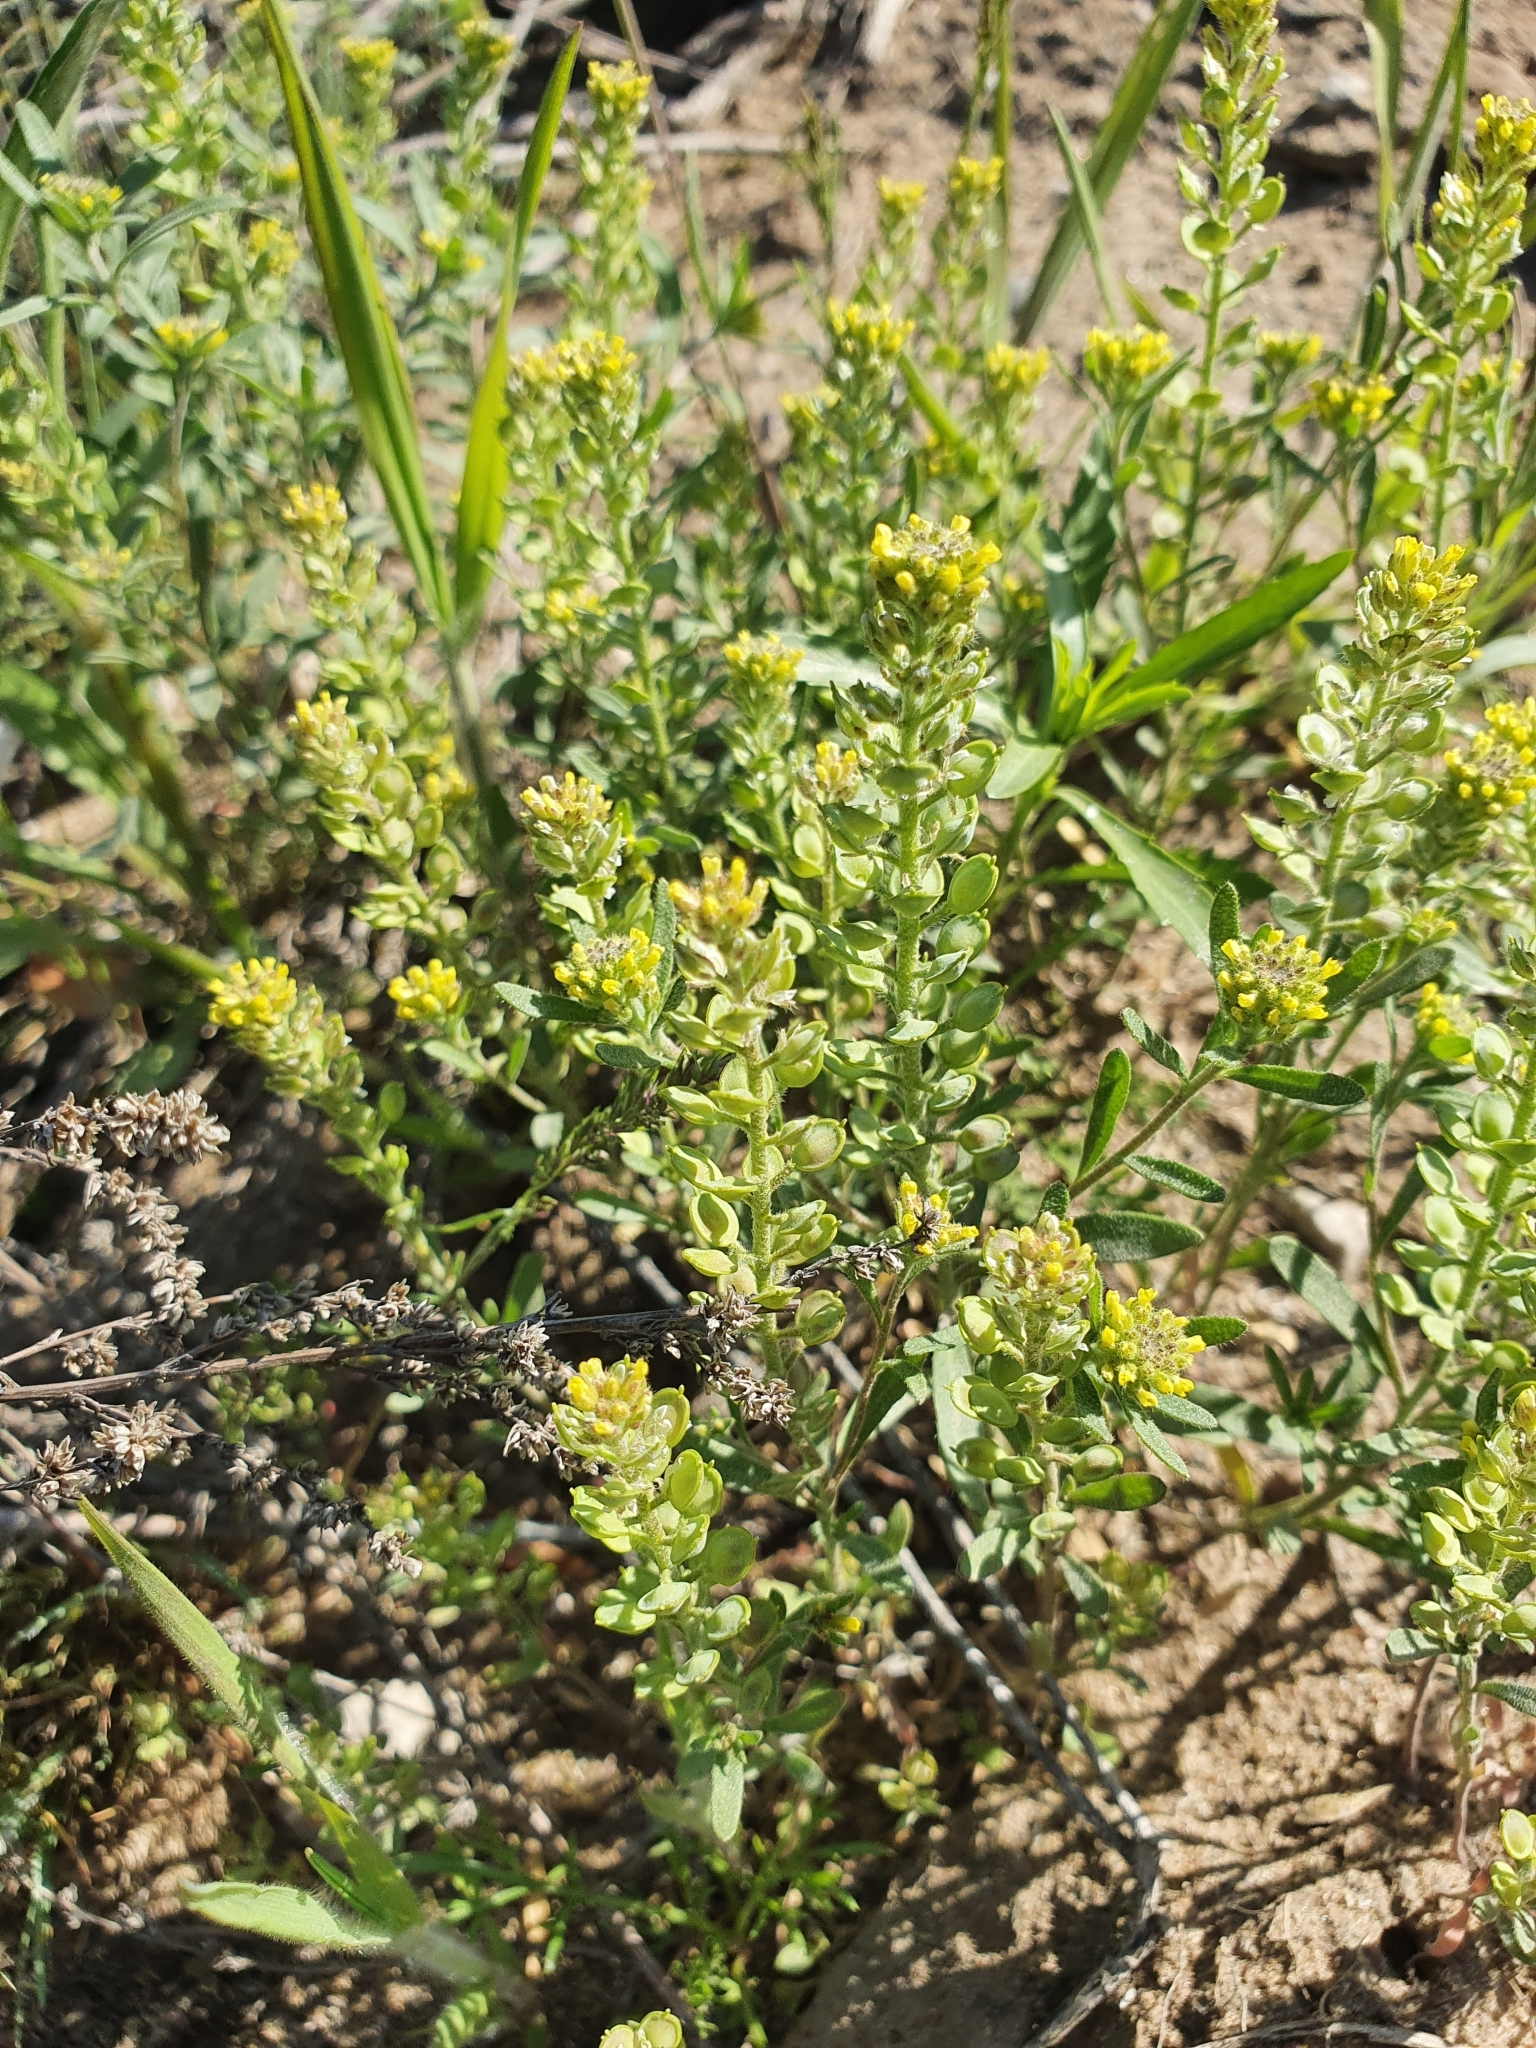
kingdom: Plantae
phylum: Tracheophyta
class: Magnoliopsida
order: Brassicales
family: Brassicaceae
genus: Alyssum
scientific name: Alyssum turkestanicum
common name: Desert alyssum
